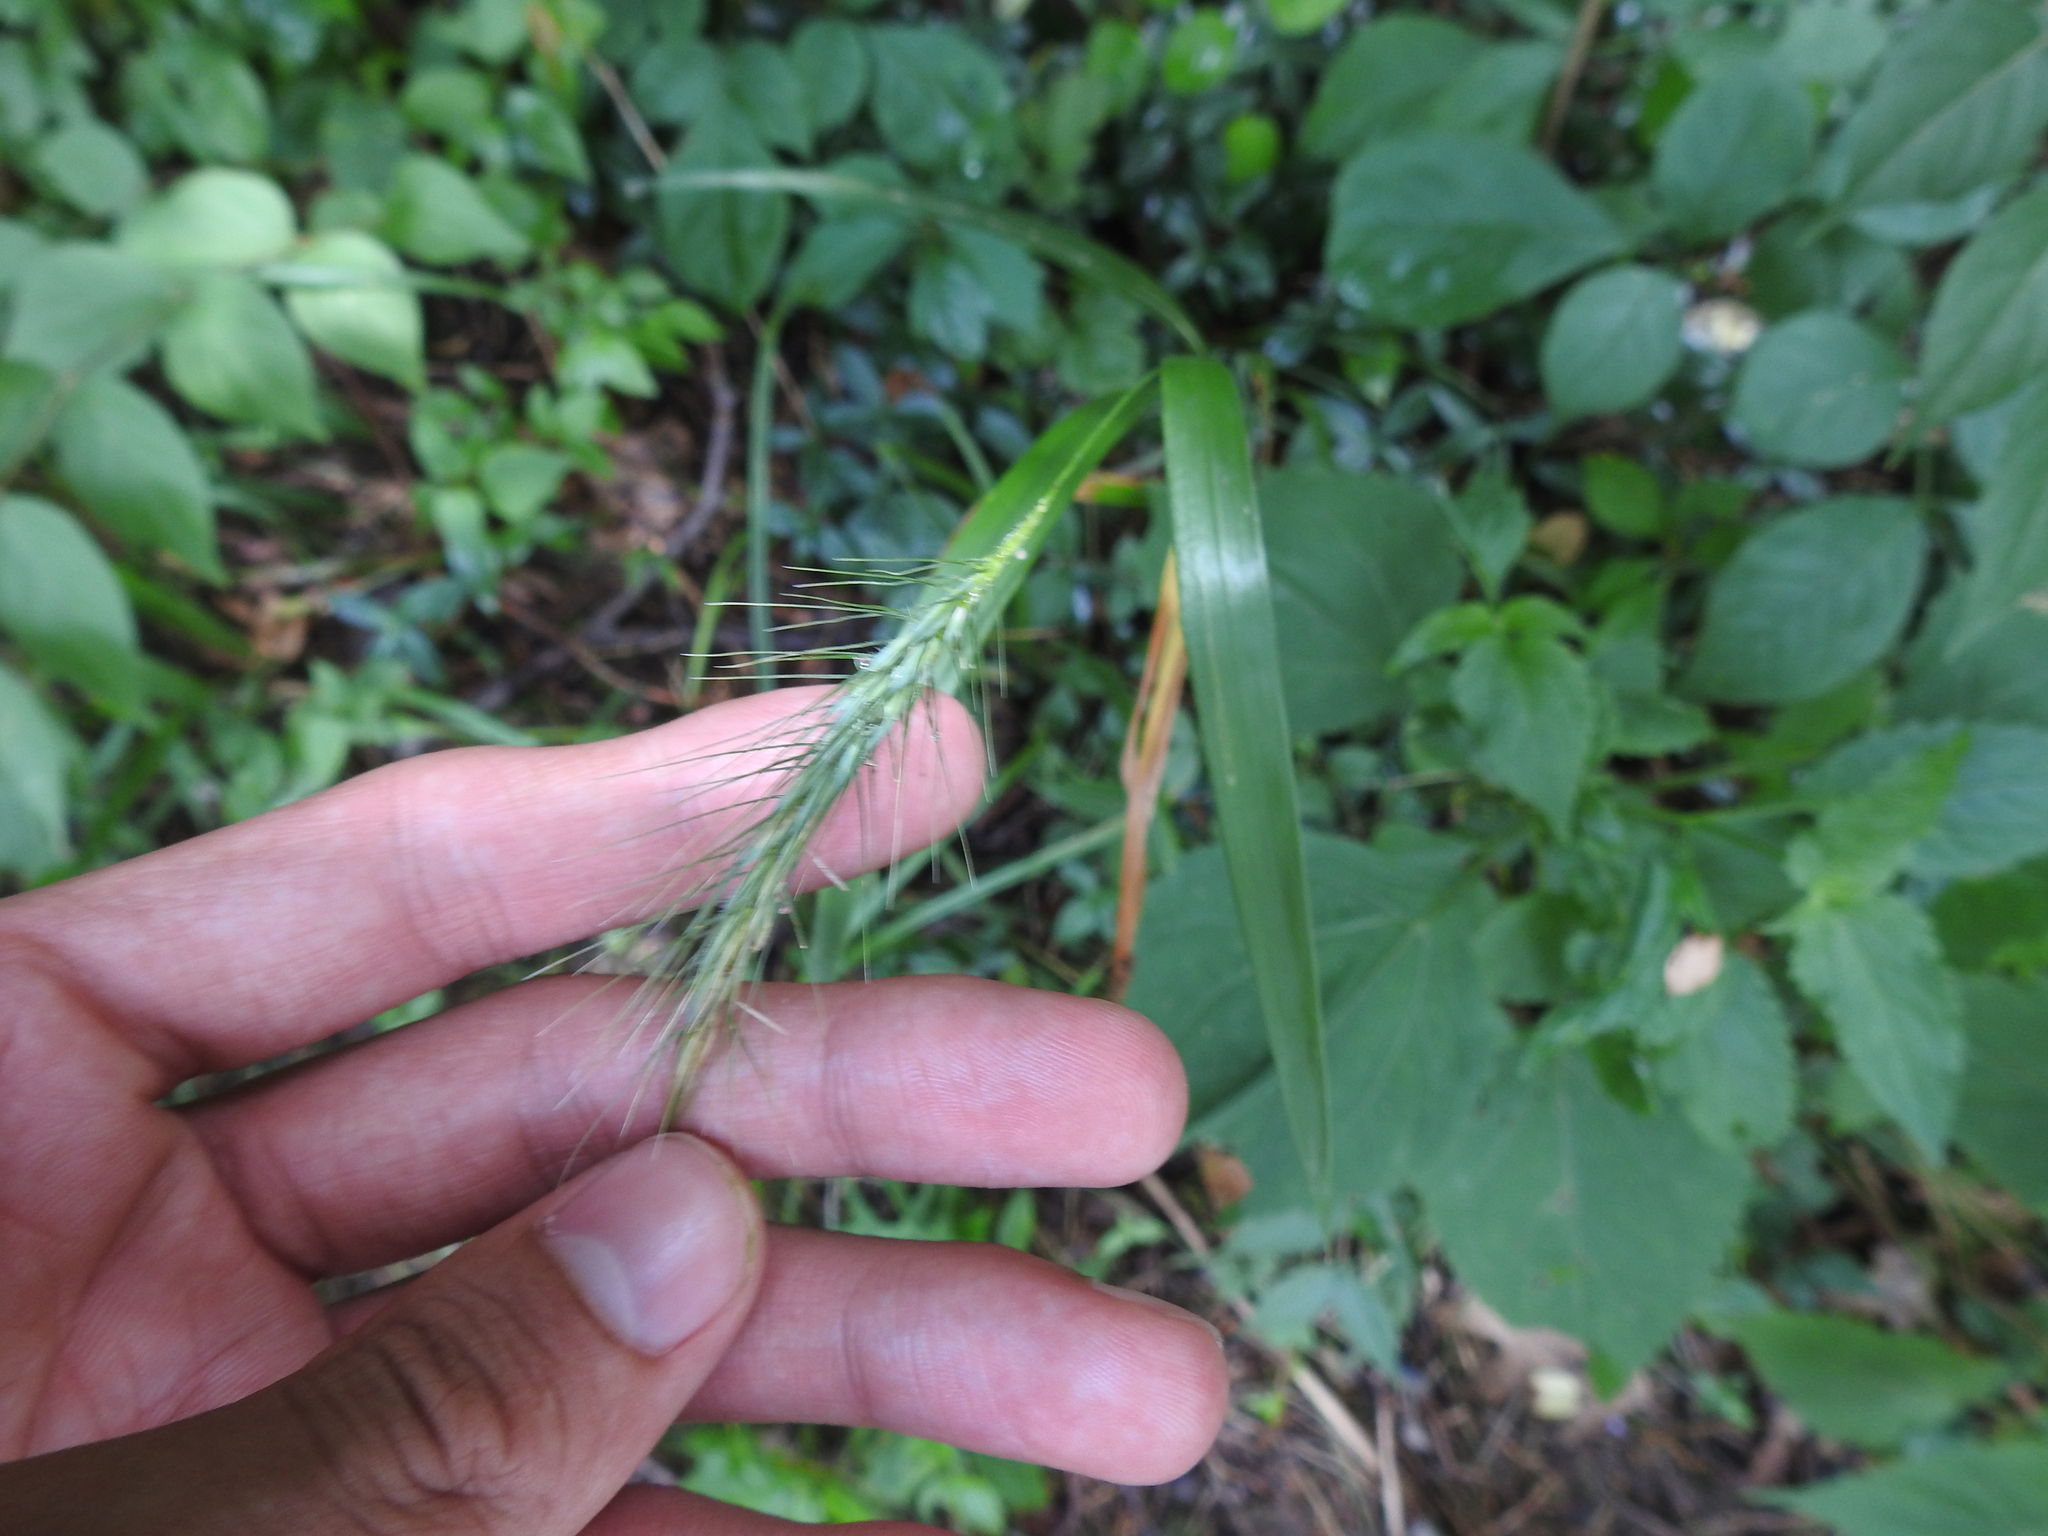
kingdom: Plantae
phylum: Tracheophyta
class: Liliopsida
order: Poales
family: Poaceae
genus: Elymus
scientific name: Elymus villosus
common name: Downy wild rye
